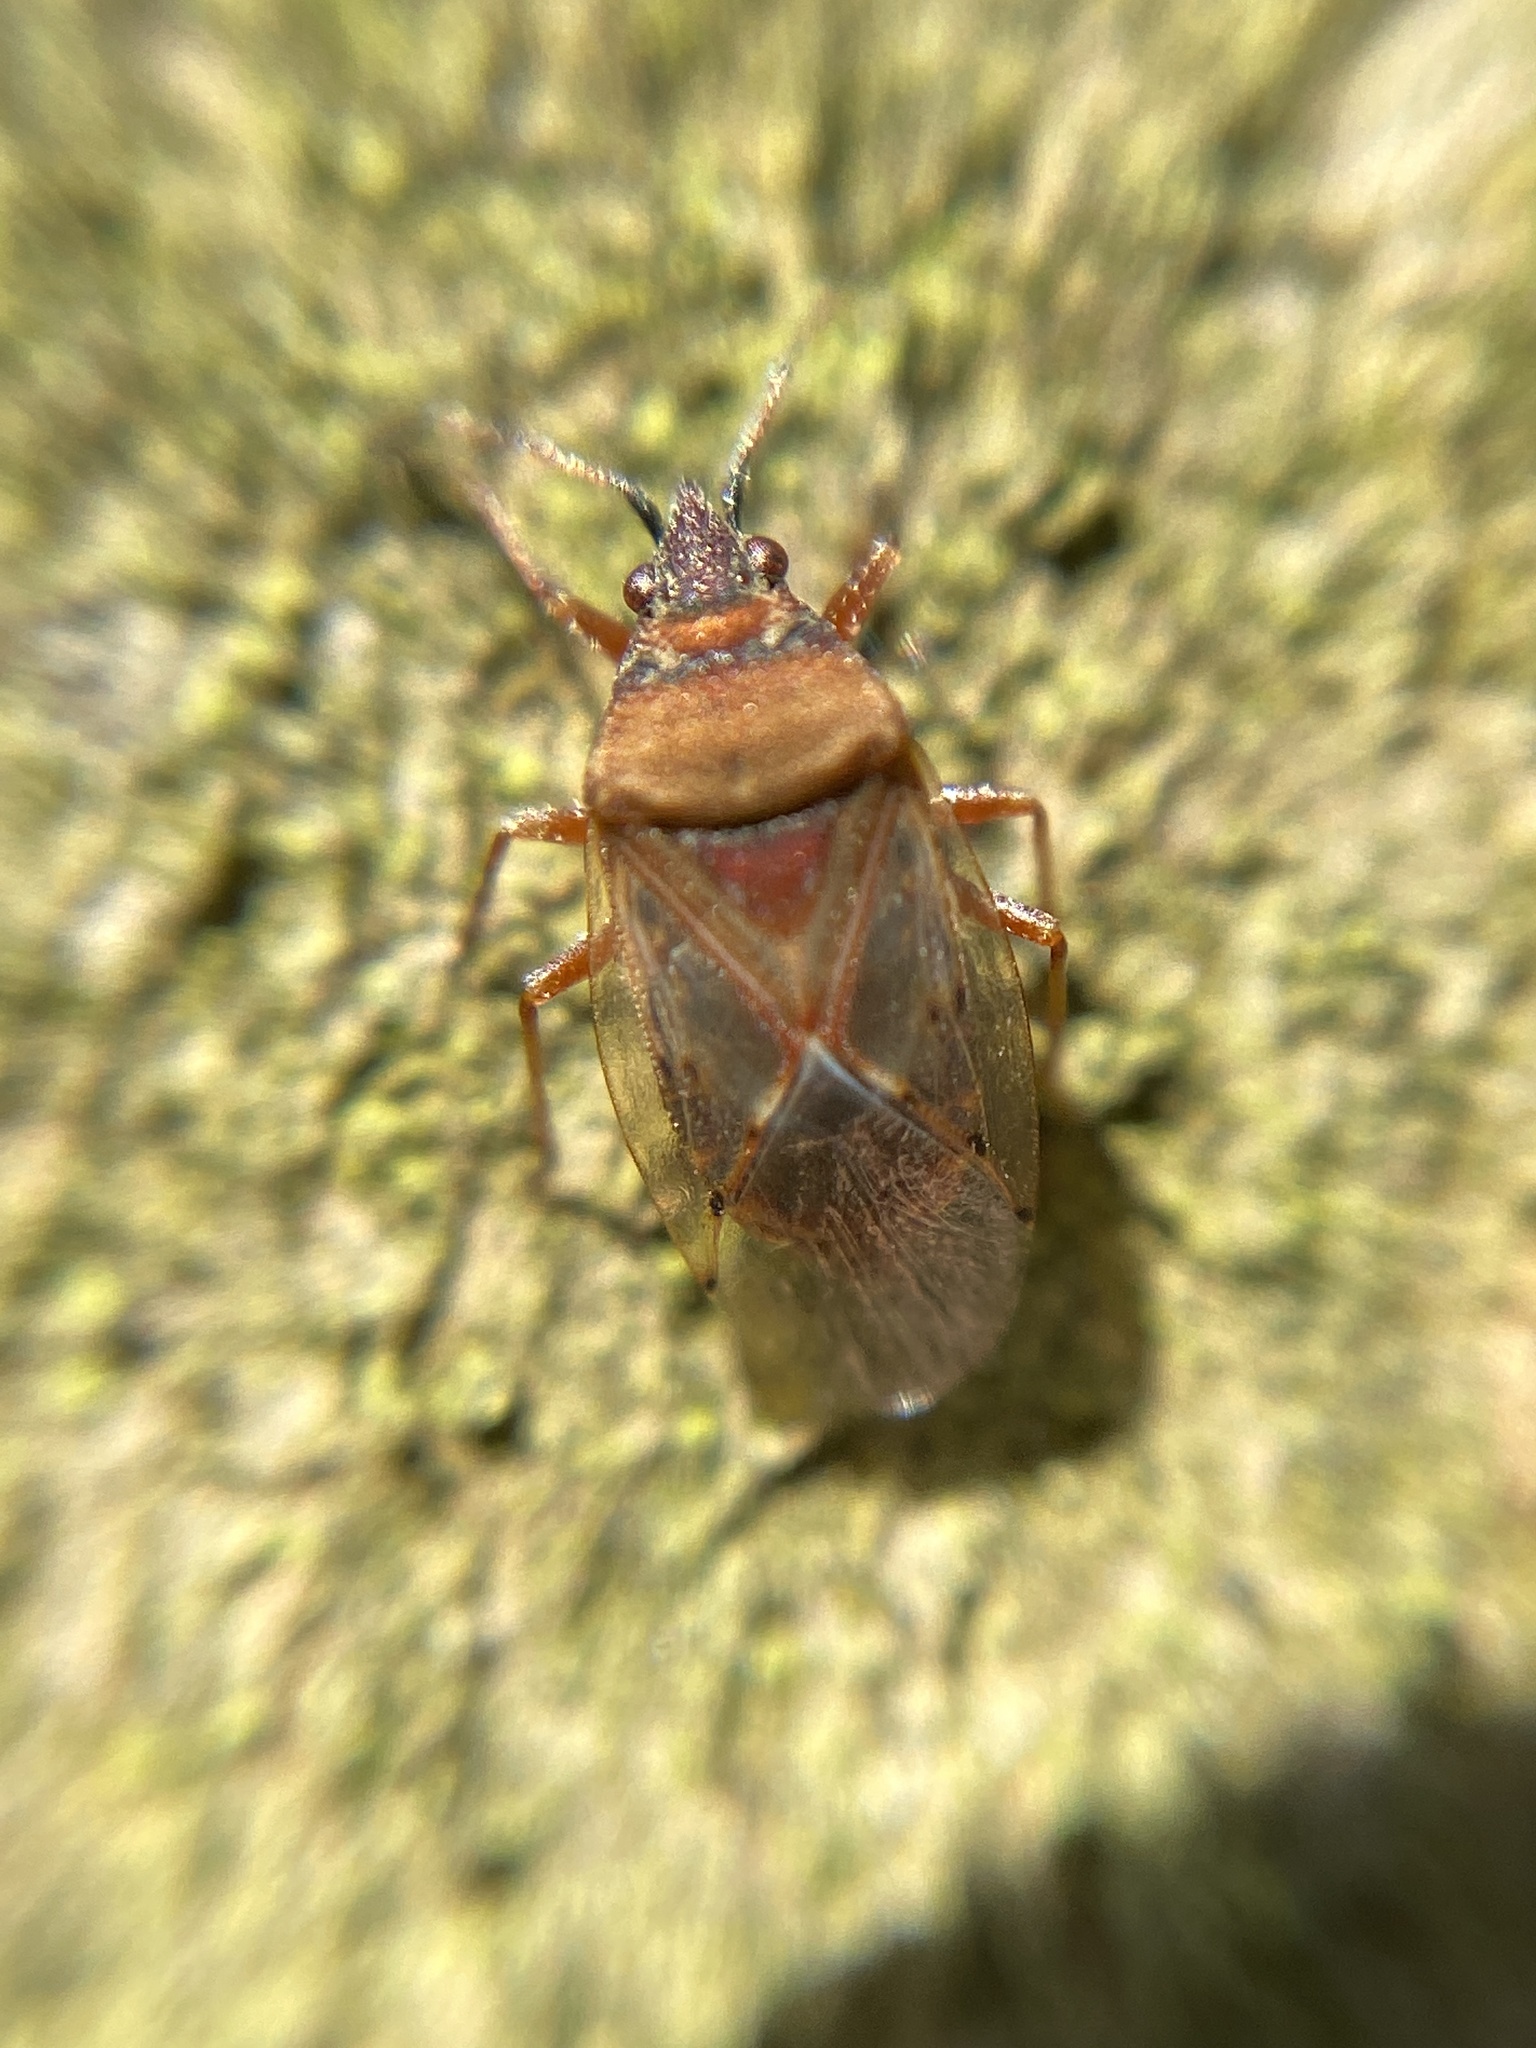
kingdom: Animalia
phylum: Arthropoda
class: Insecta
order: Hemiptera
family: Lygaeidae
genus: Kleidocerys
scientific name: Kleidocerys resedae
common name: Birch catkin bug
